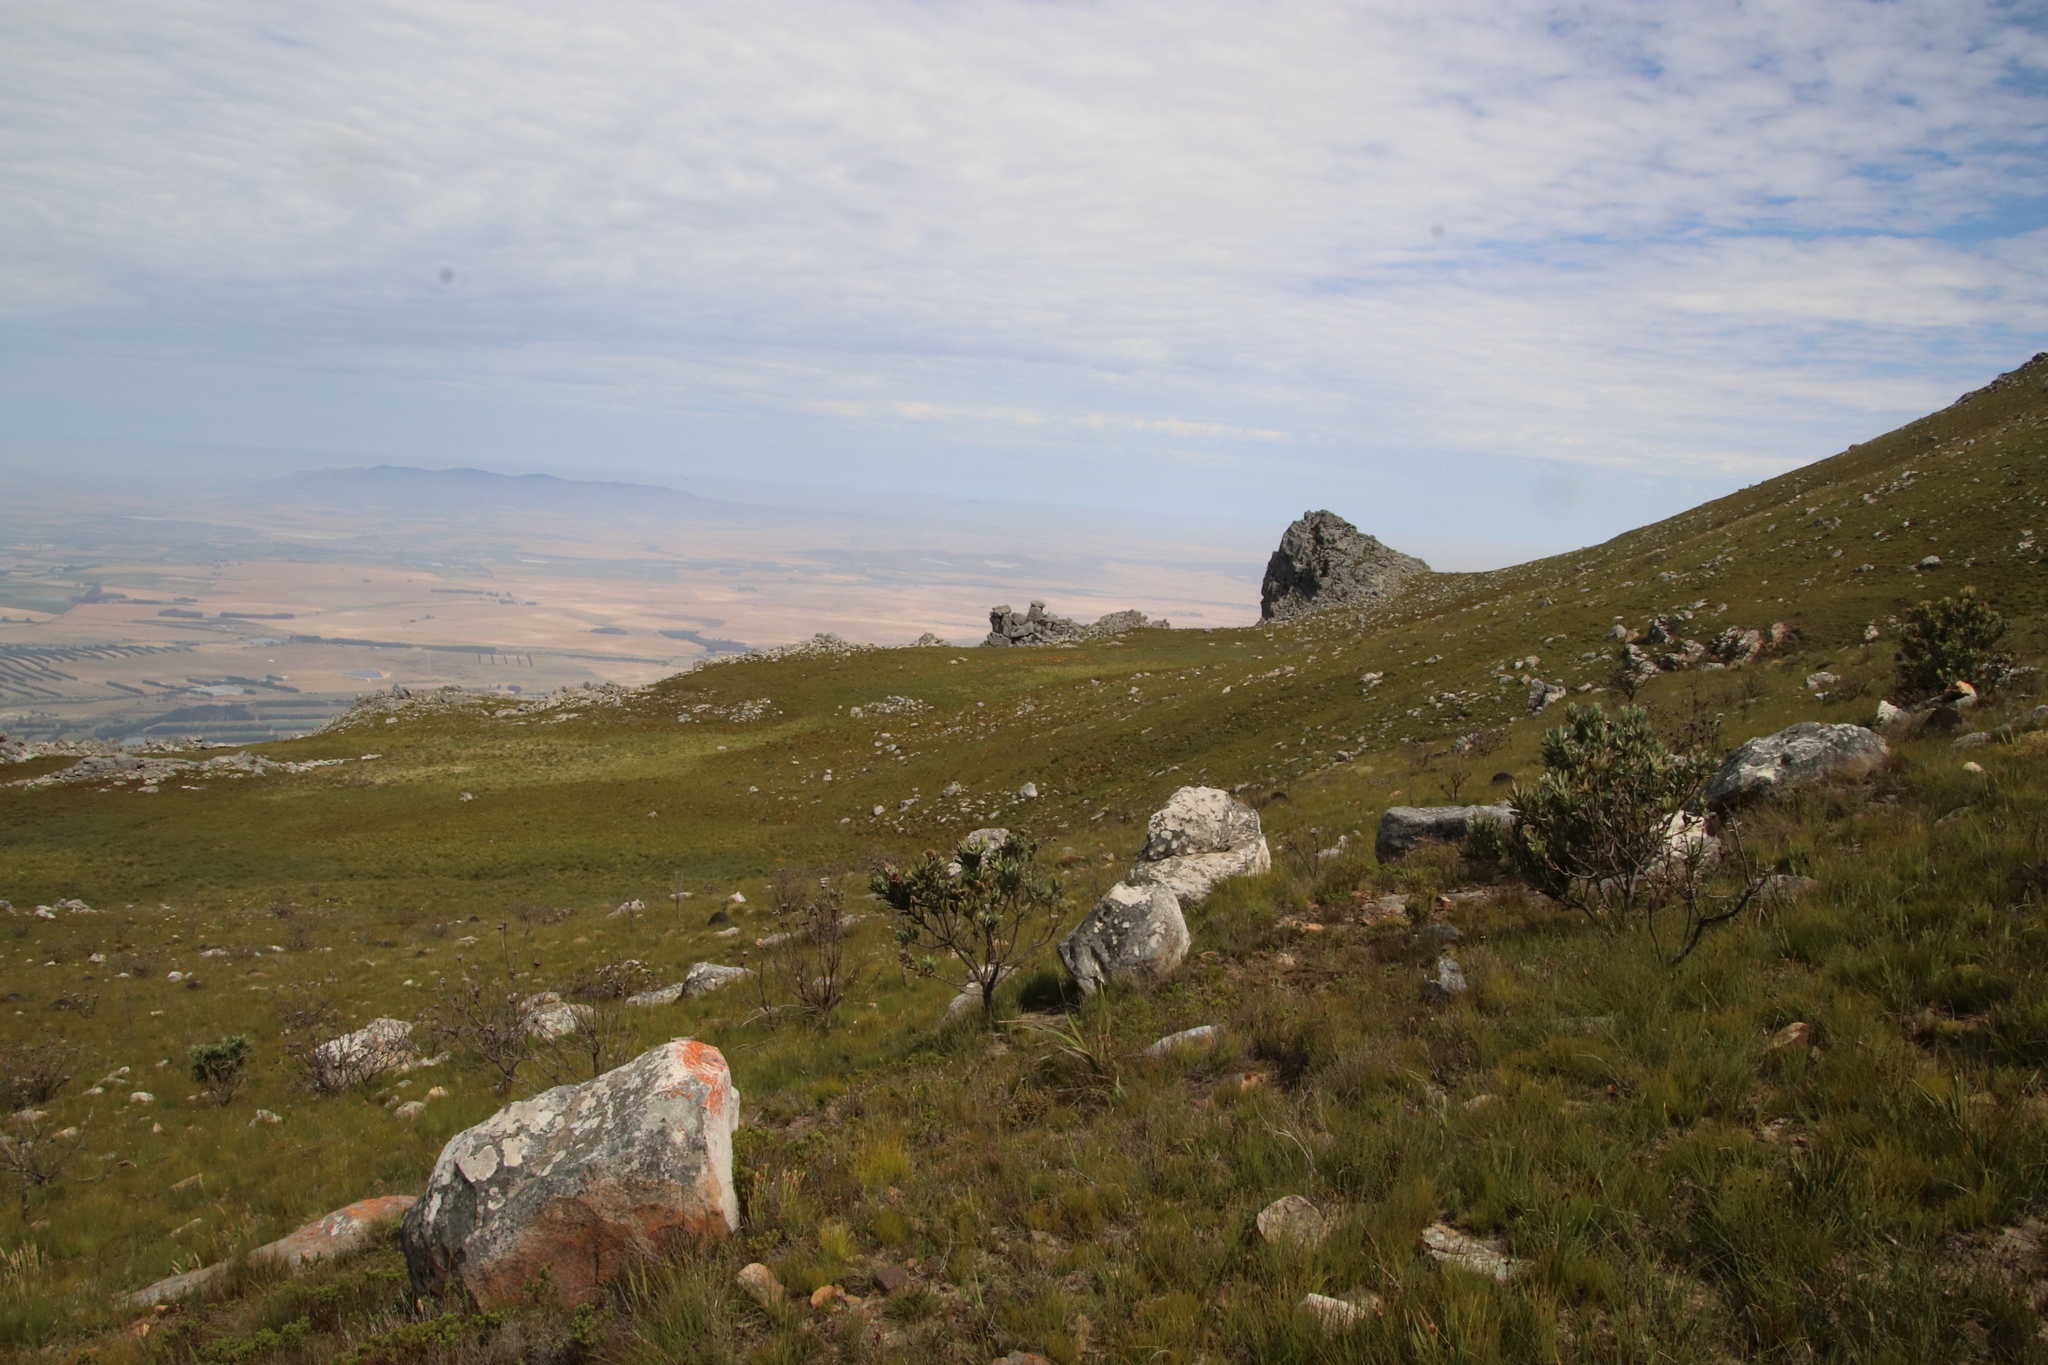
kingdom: Plantae
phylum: Tracheophyta
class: Magnoliopsida
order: Proteales
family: Proteaceae
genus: Protea
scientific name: Protea laurifolia
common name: Grey-leaf sugarbsh
